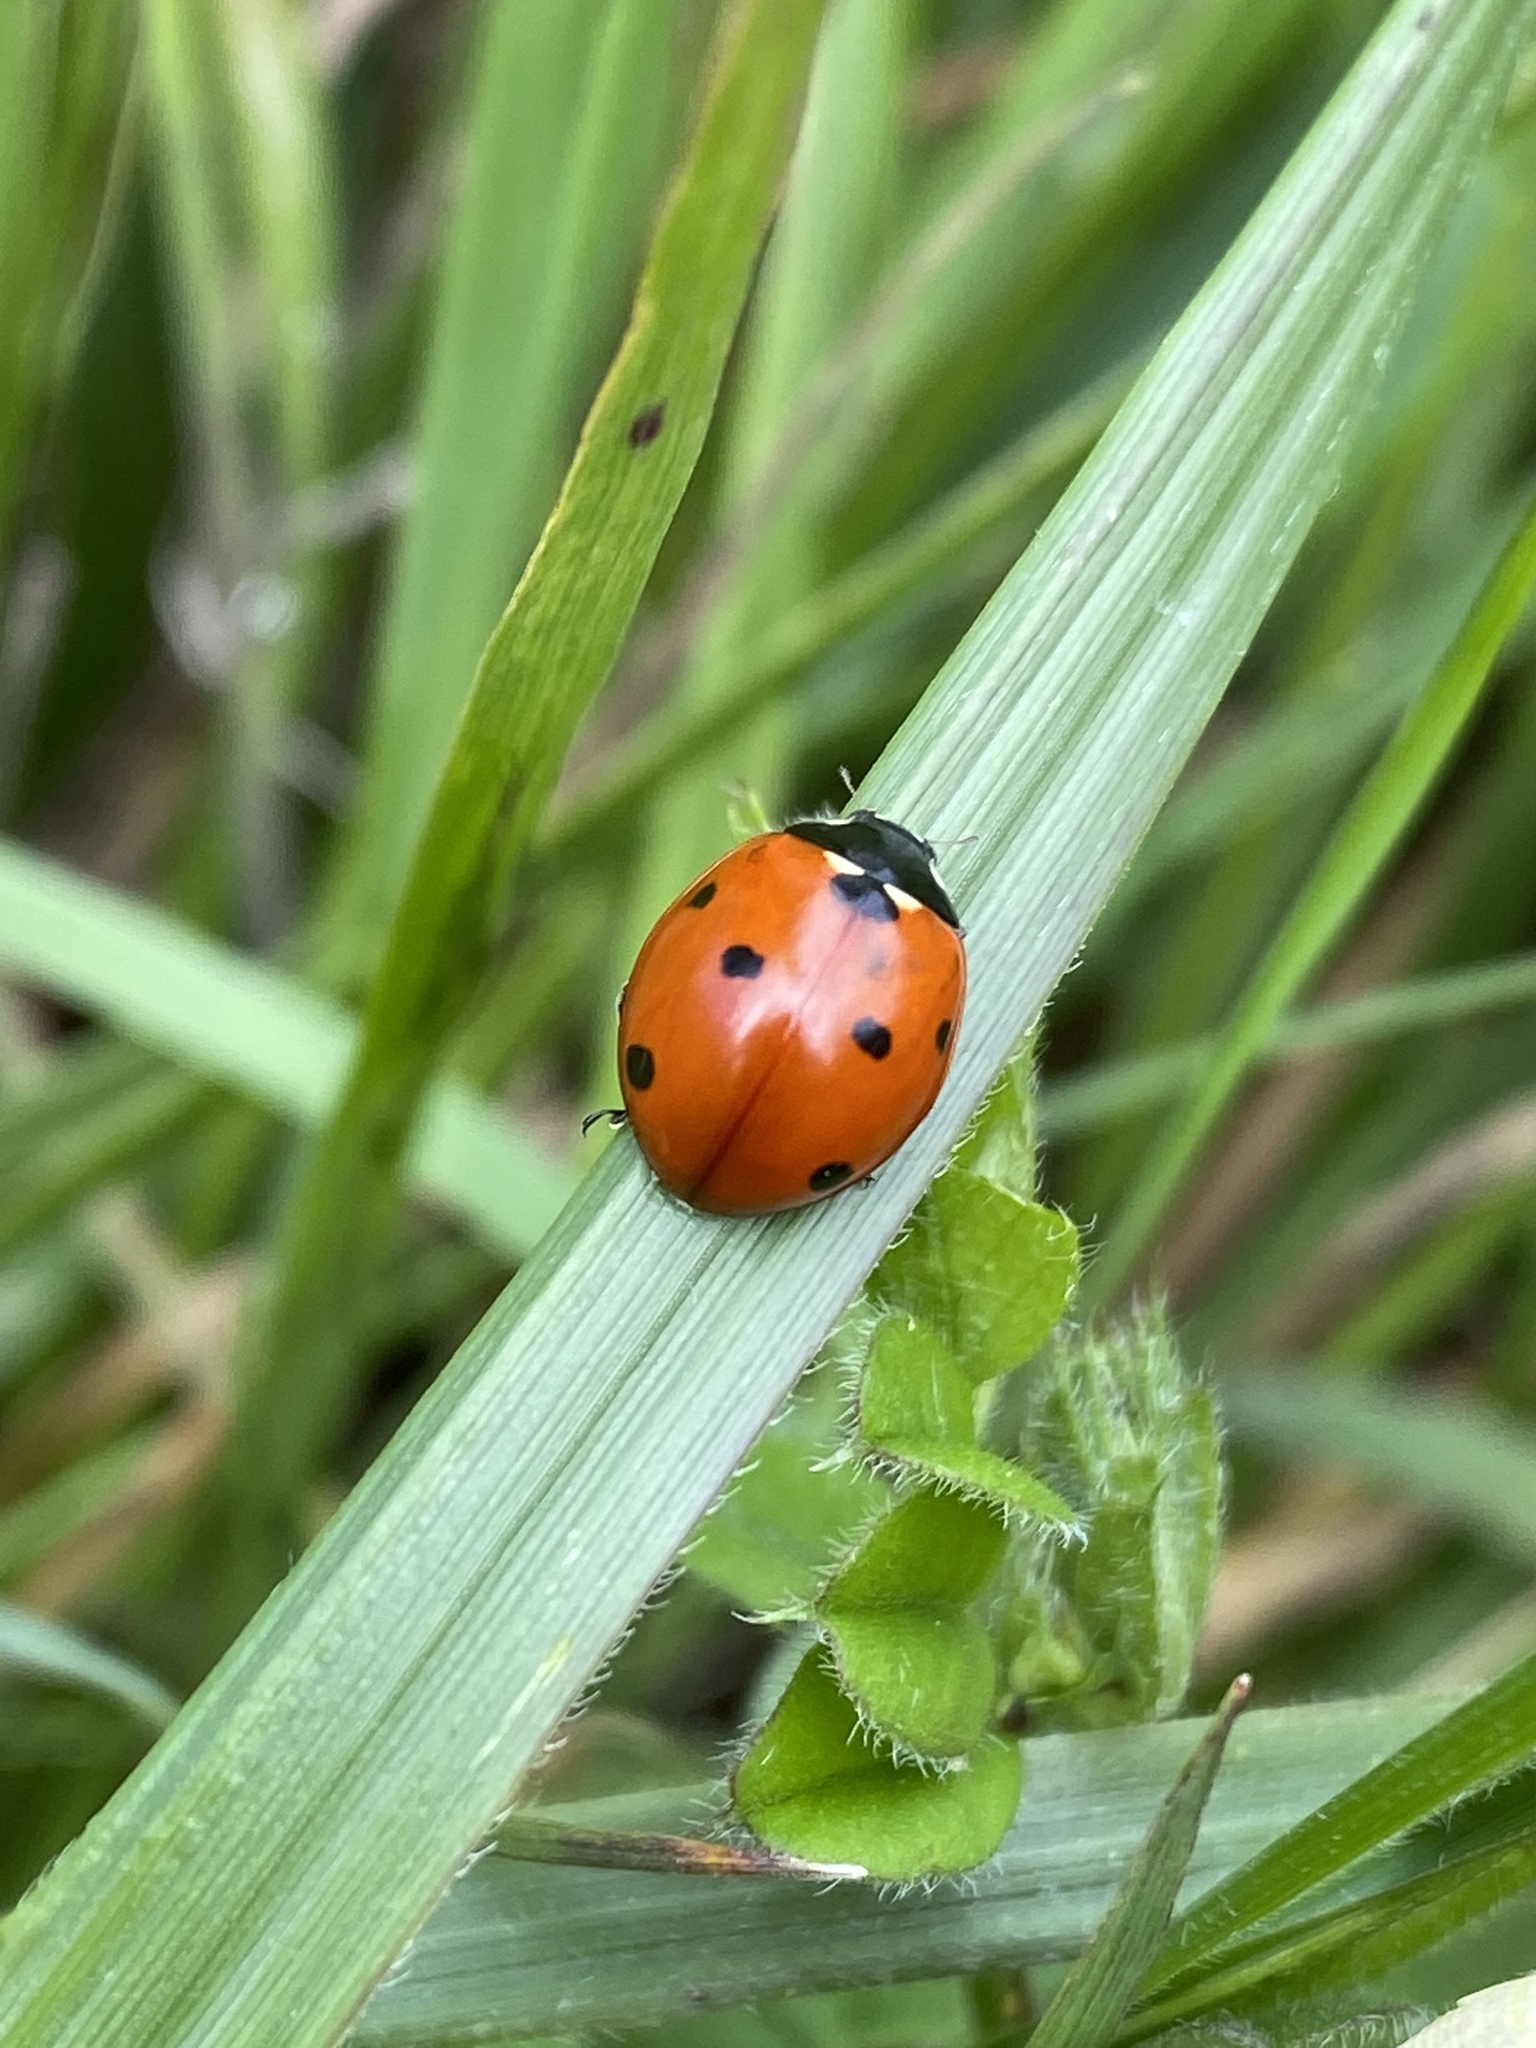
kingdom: Animalia
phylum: Arthropoda
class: Insecta
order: Coleoptera
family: Coccinellidae
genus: Coccinella
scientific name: Coccinella septempunctata
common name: Sevenspotted lady beetle
